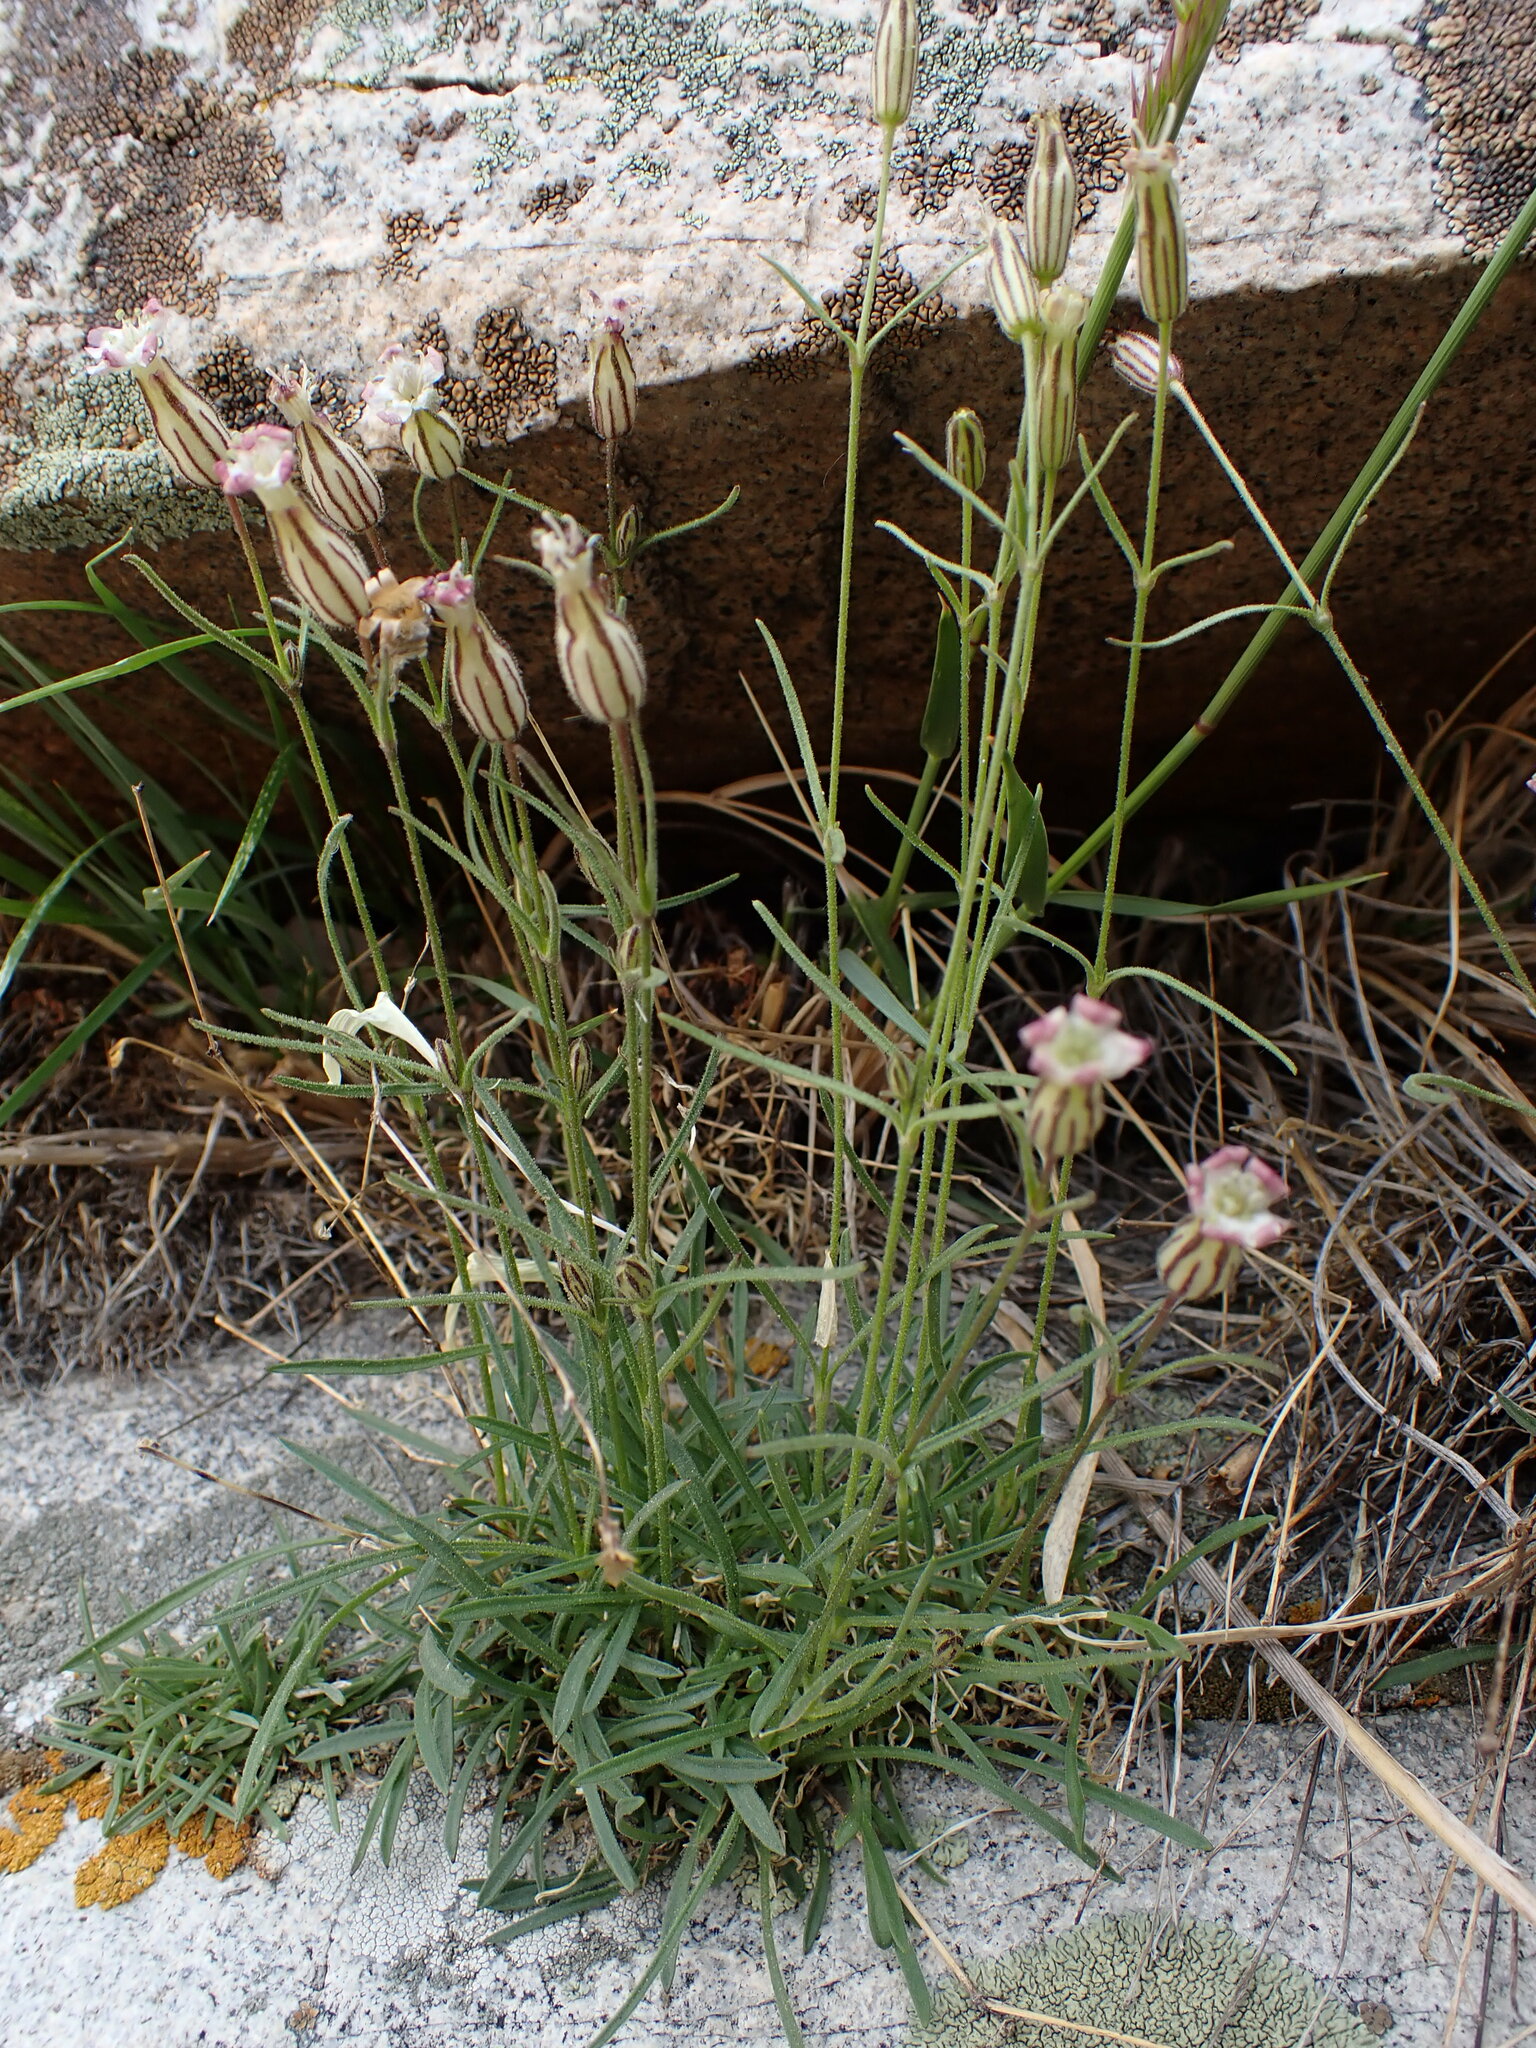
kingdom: Plantae
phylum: Tracheophyta
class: Magnoliopsida
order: Caryophyllales
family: Caryophyllaceae
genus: Silene
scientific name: Silene sargentii
